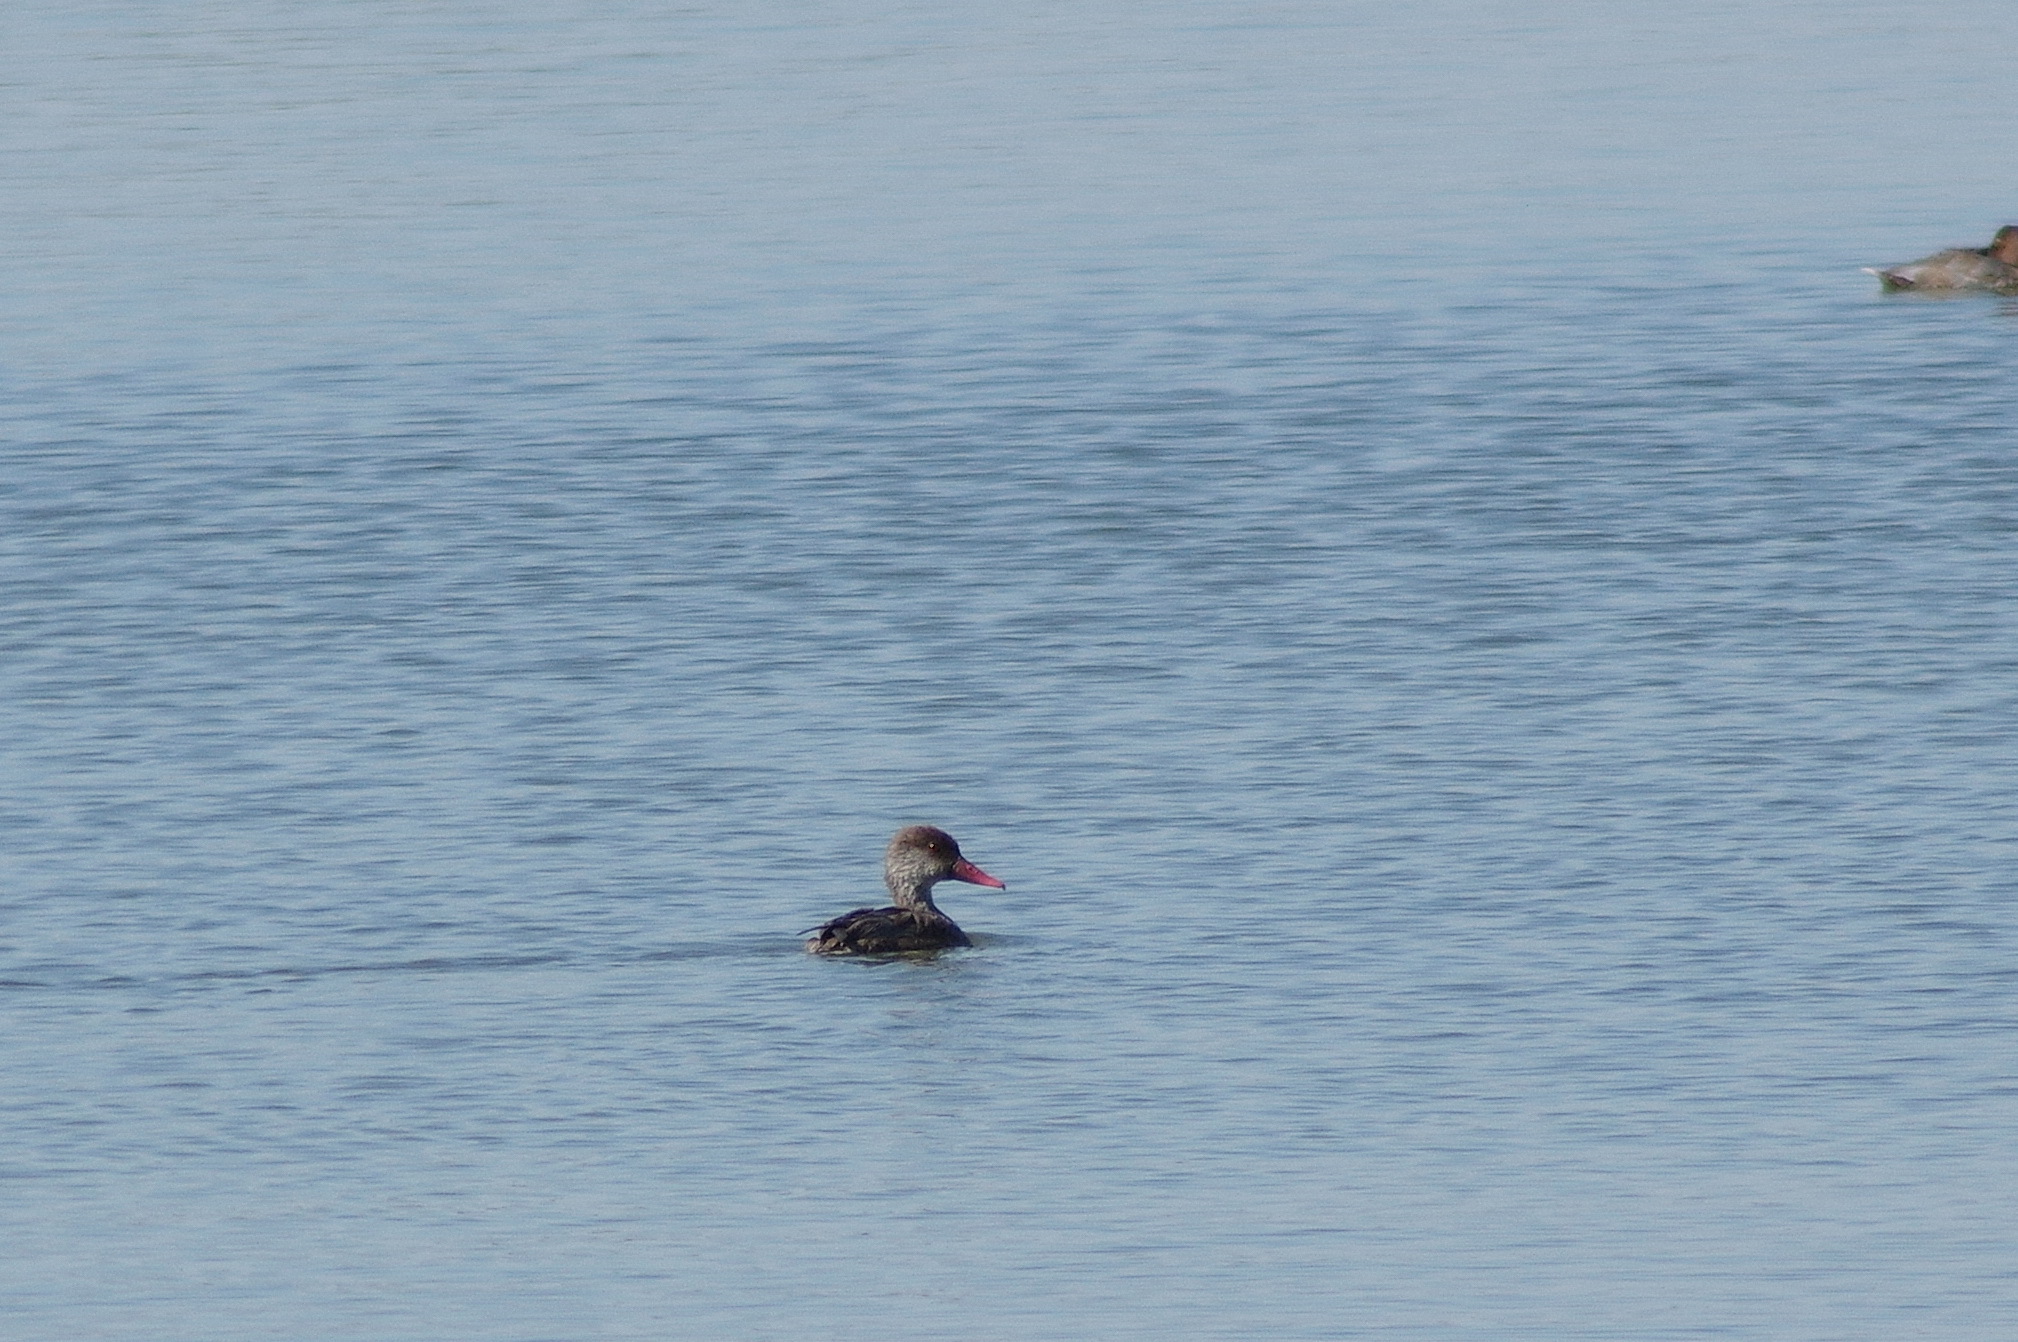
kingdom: Animalia
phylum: Chordata
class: Aves
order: Anseriformes
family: Anatidae
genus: Netta
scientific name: Netta rufina
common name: Red-crested pochard
